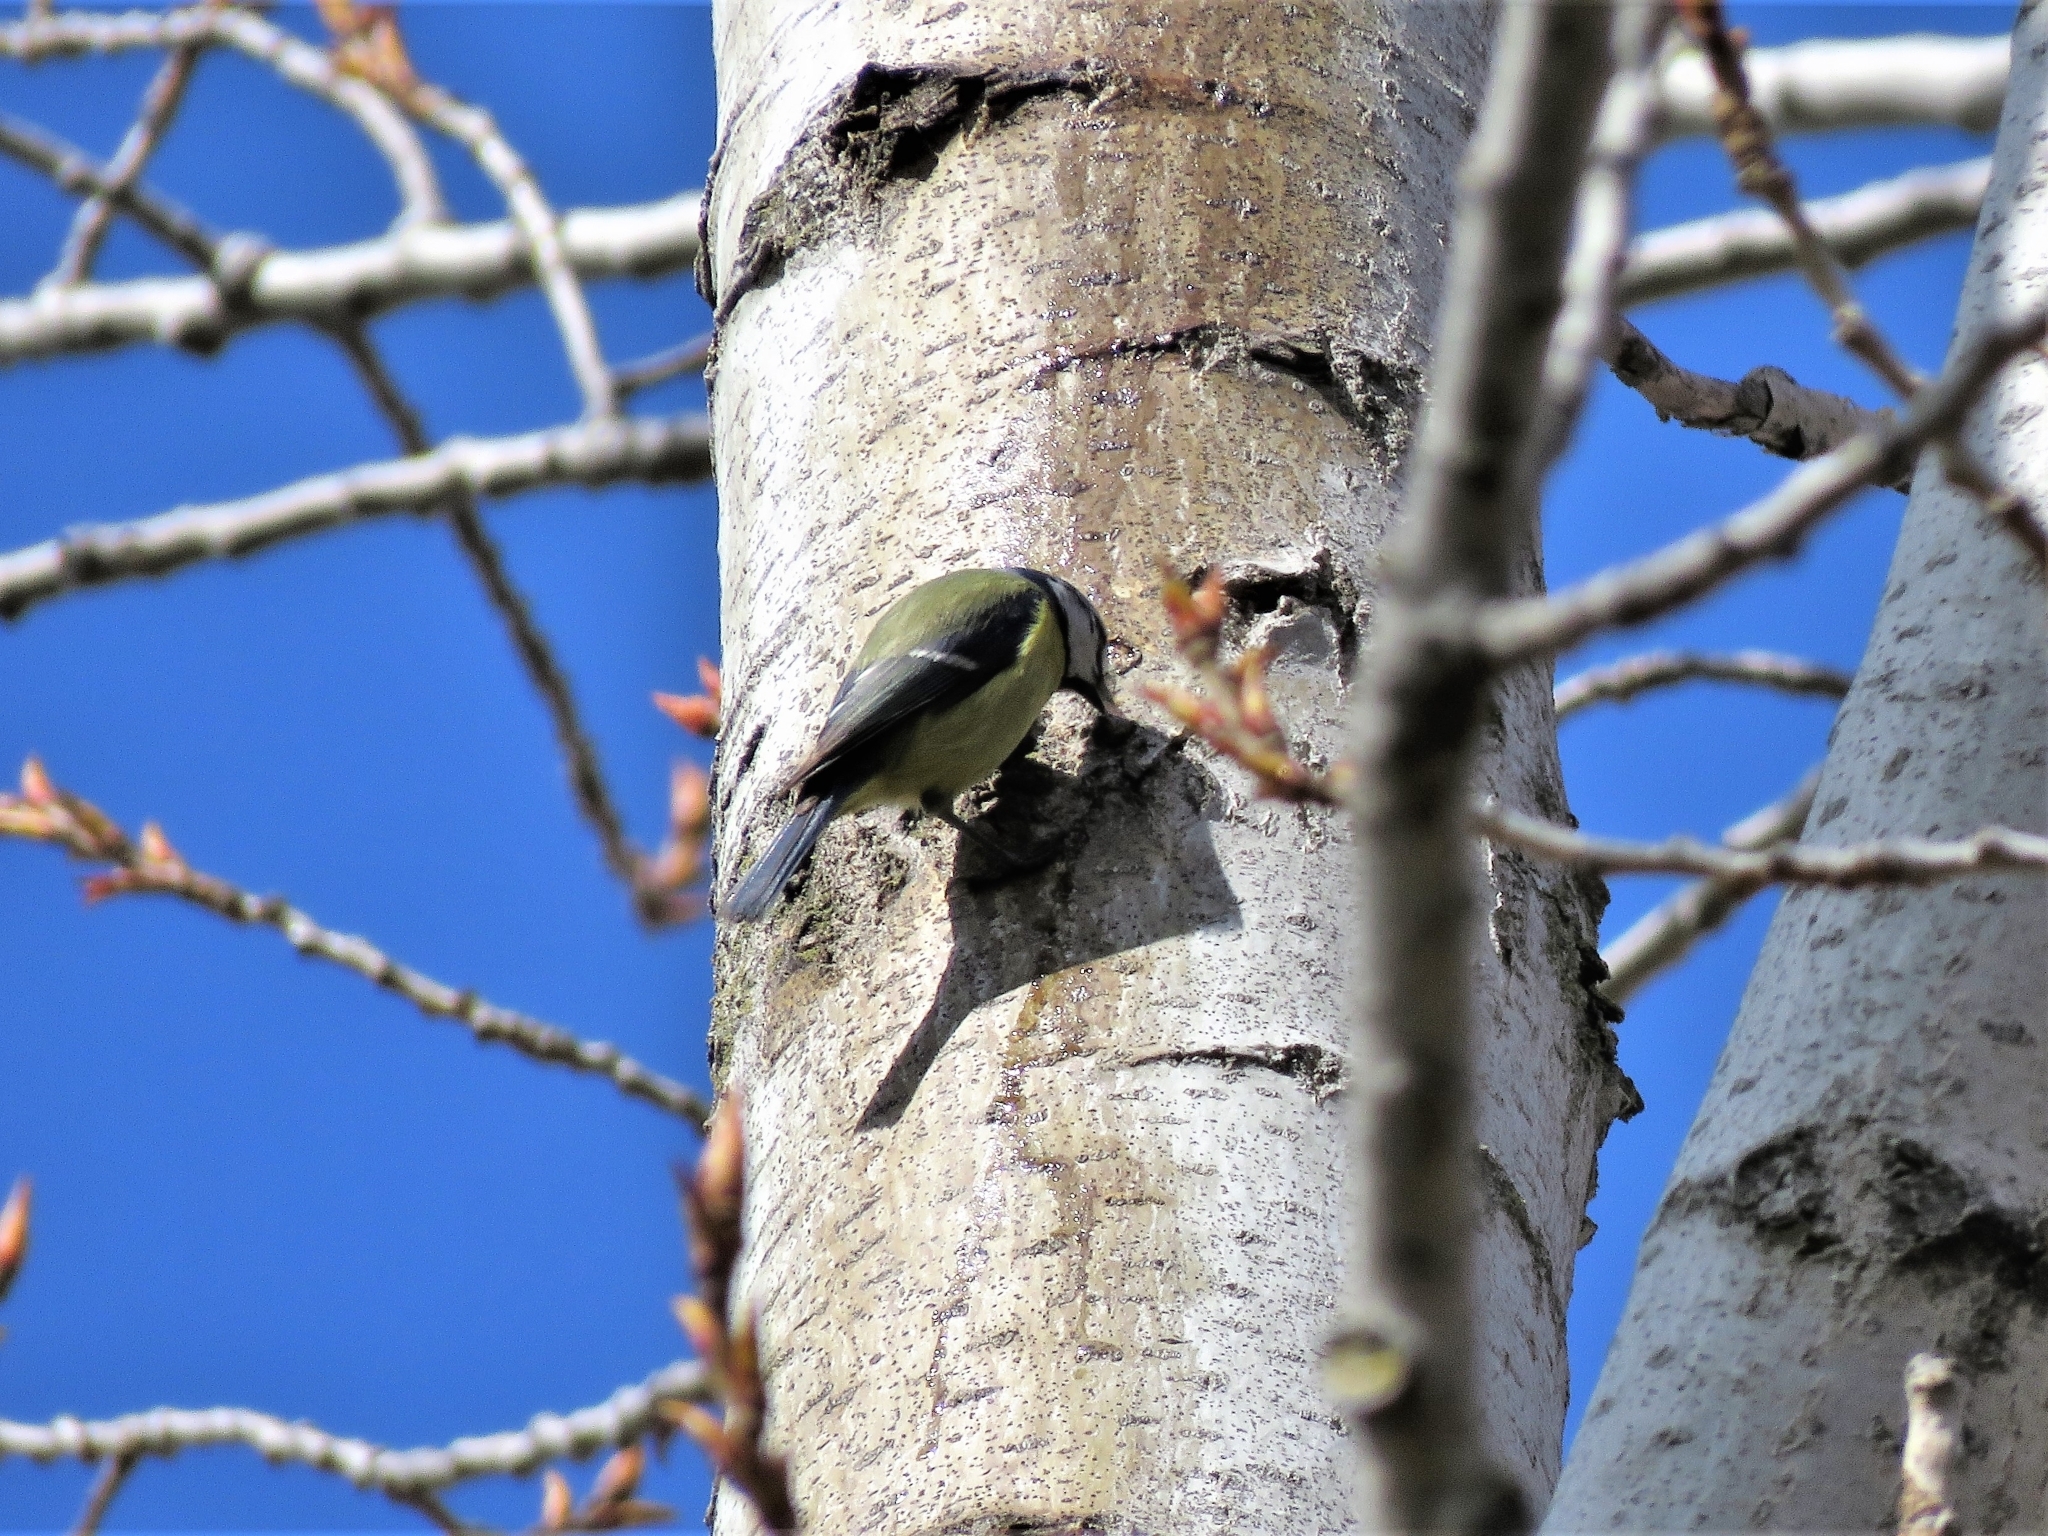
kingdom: Animalia
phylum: Chordata
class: Aves
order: Passeriformes
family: Paridae
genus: Cyanistes
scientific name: Cyanistes caeruleus
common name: Eurasian blue tit
